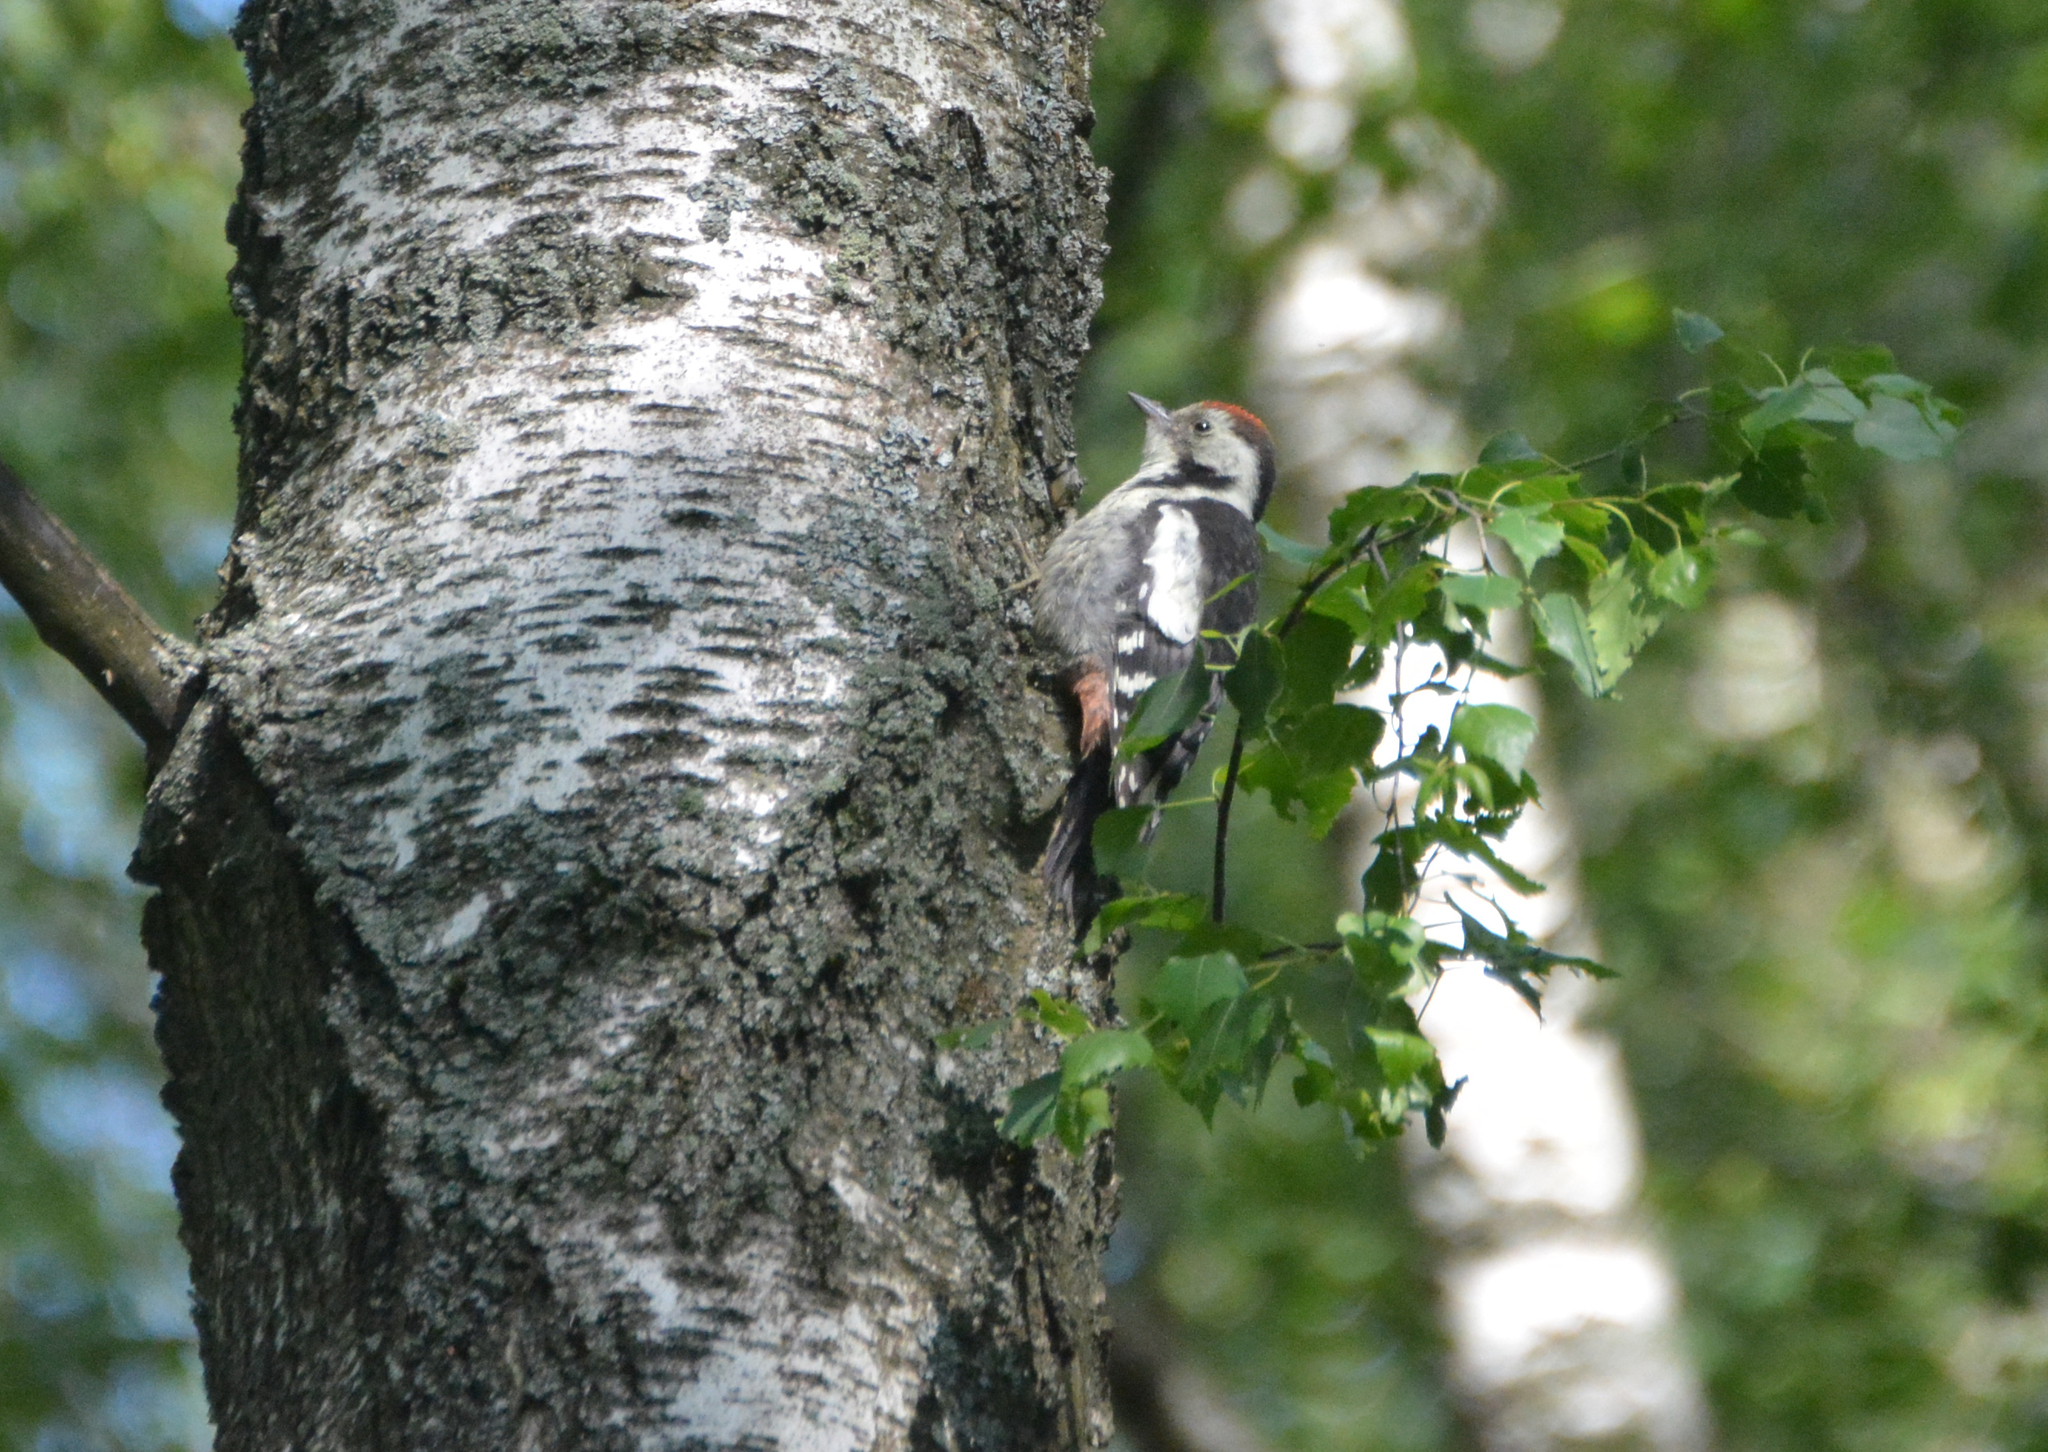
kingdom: Animalia
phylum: Chordata
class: Aves
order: Piciformes
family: Picidae
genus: Dendrocoptes
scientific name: Dendrocoptes medius
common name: Middle spotted woodpecker
